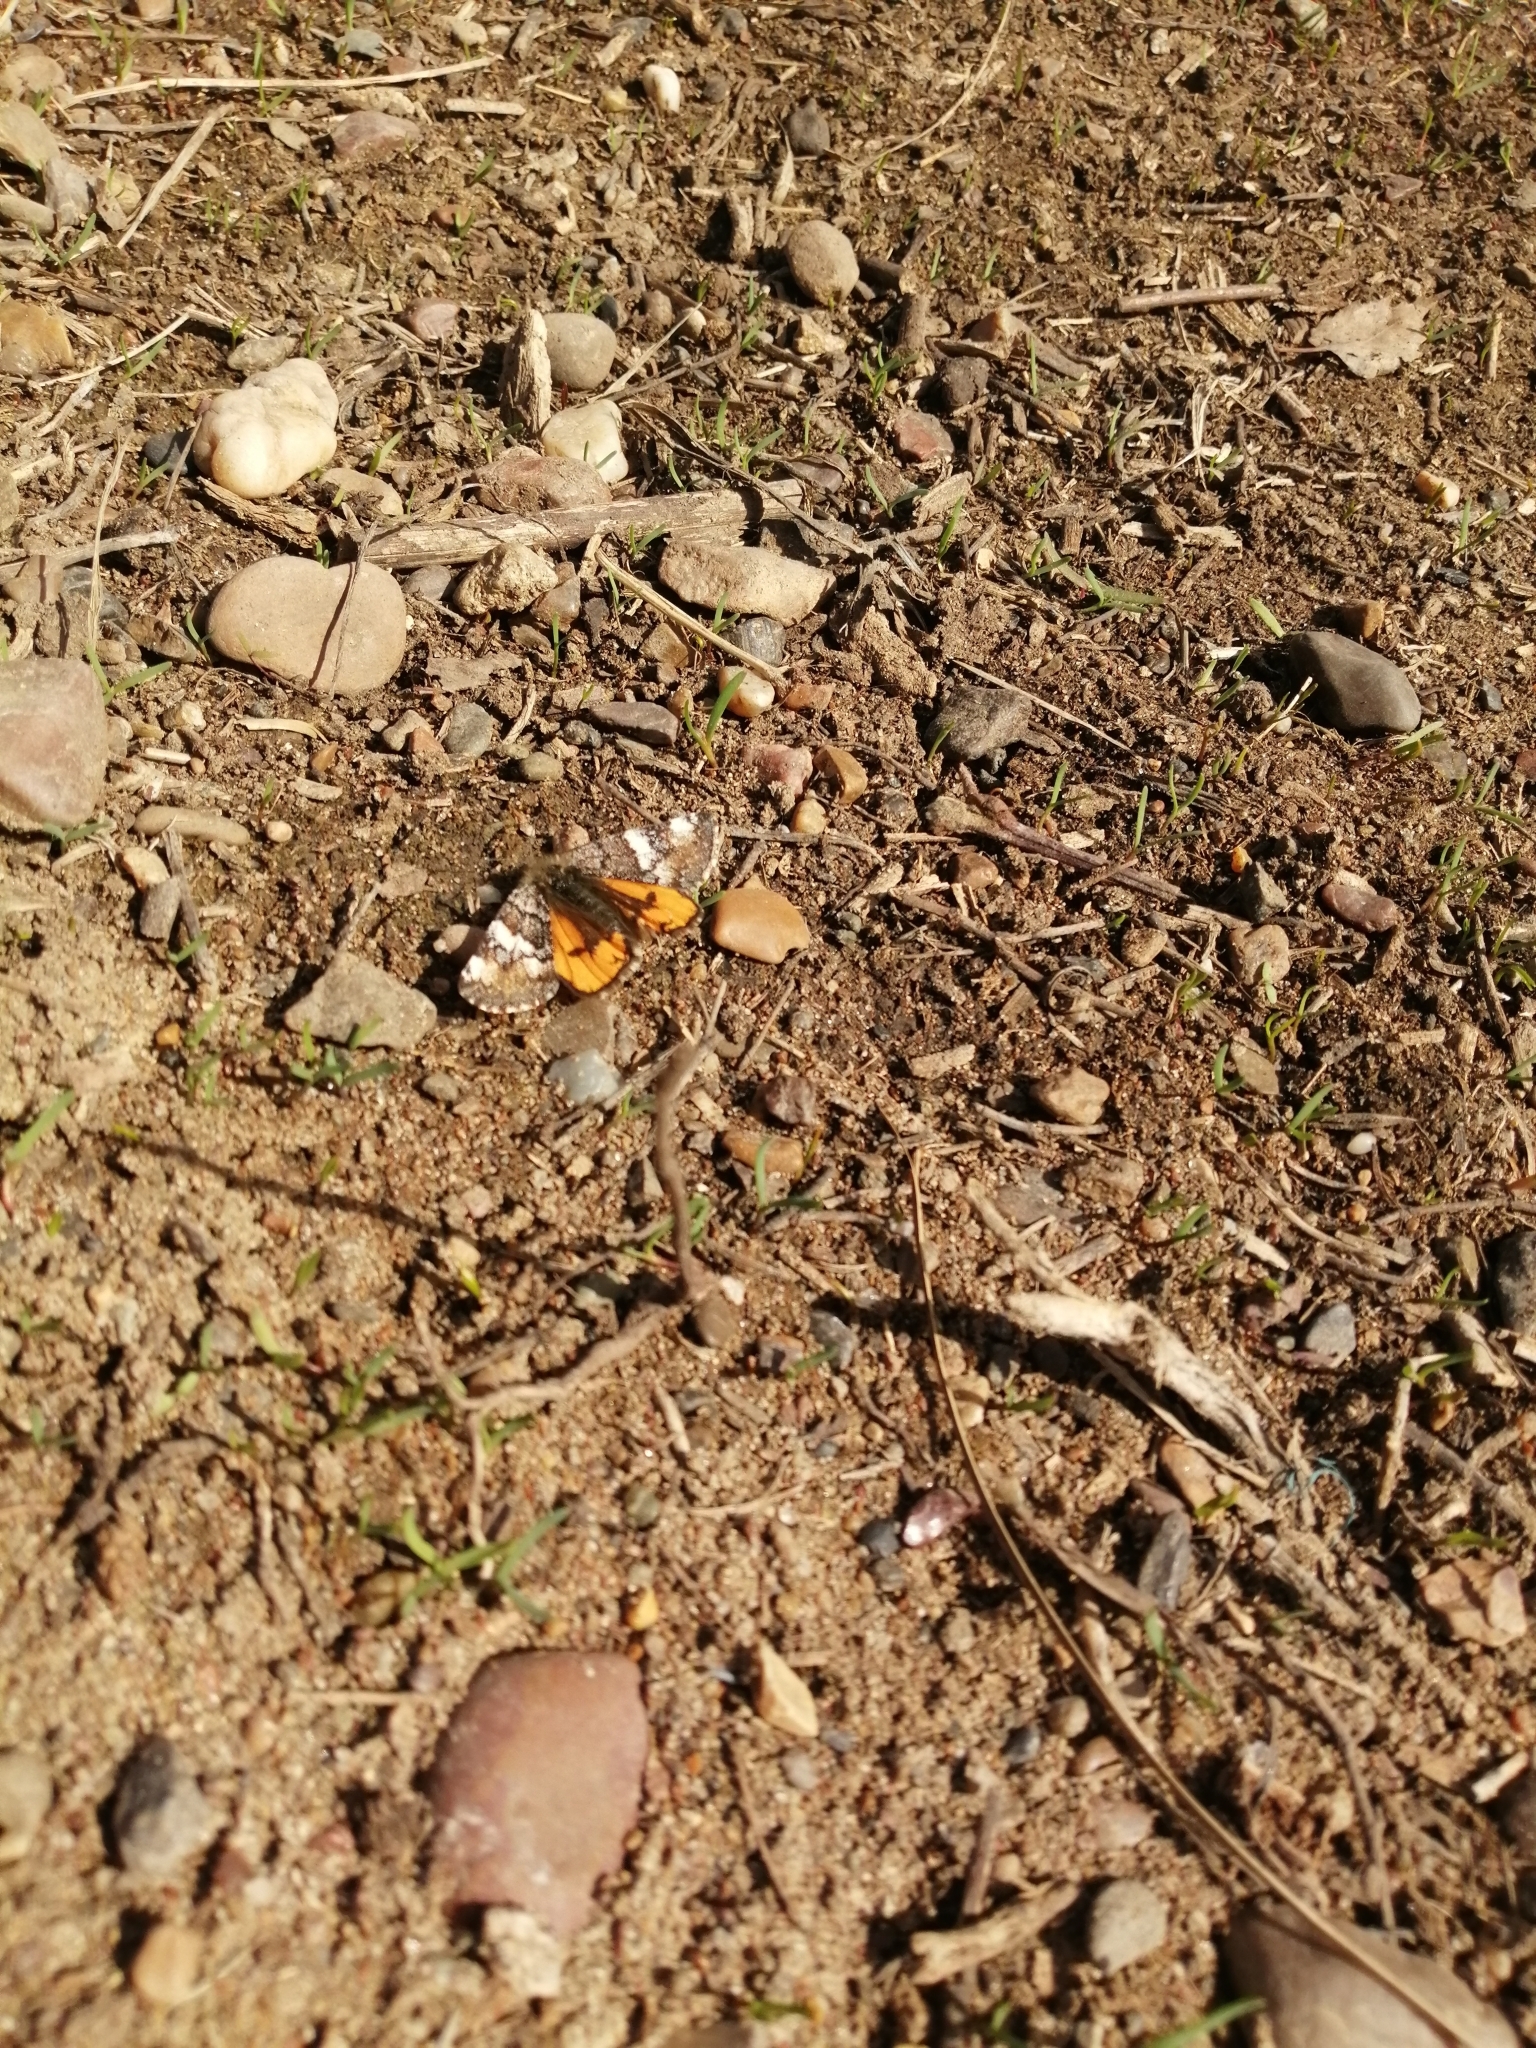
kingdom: Animalia
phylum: Arthropoda
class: Insecta
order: Lepidoptera
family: Geometridae
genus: Archiearis
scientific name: Archiearis parthenias
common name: Orange underwing
